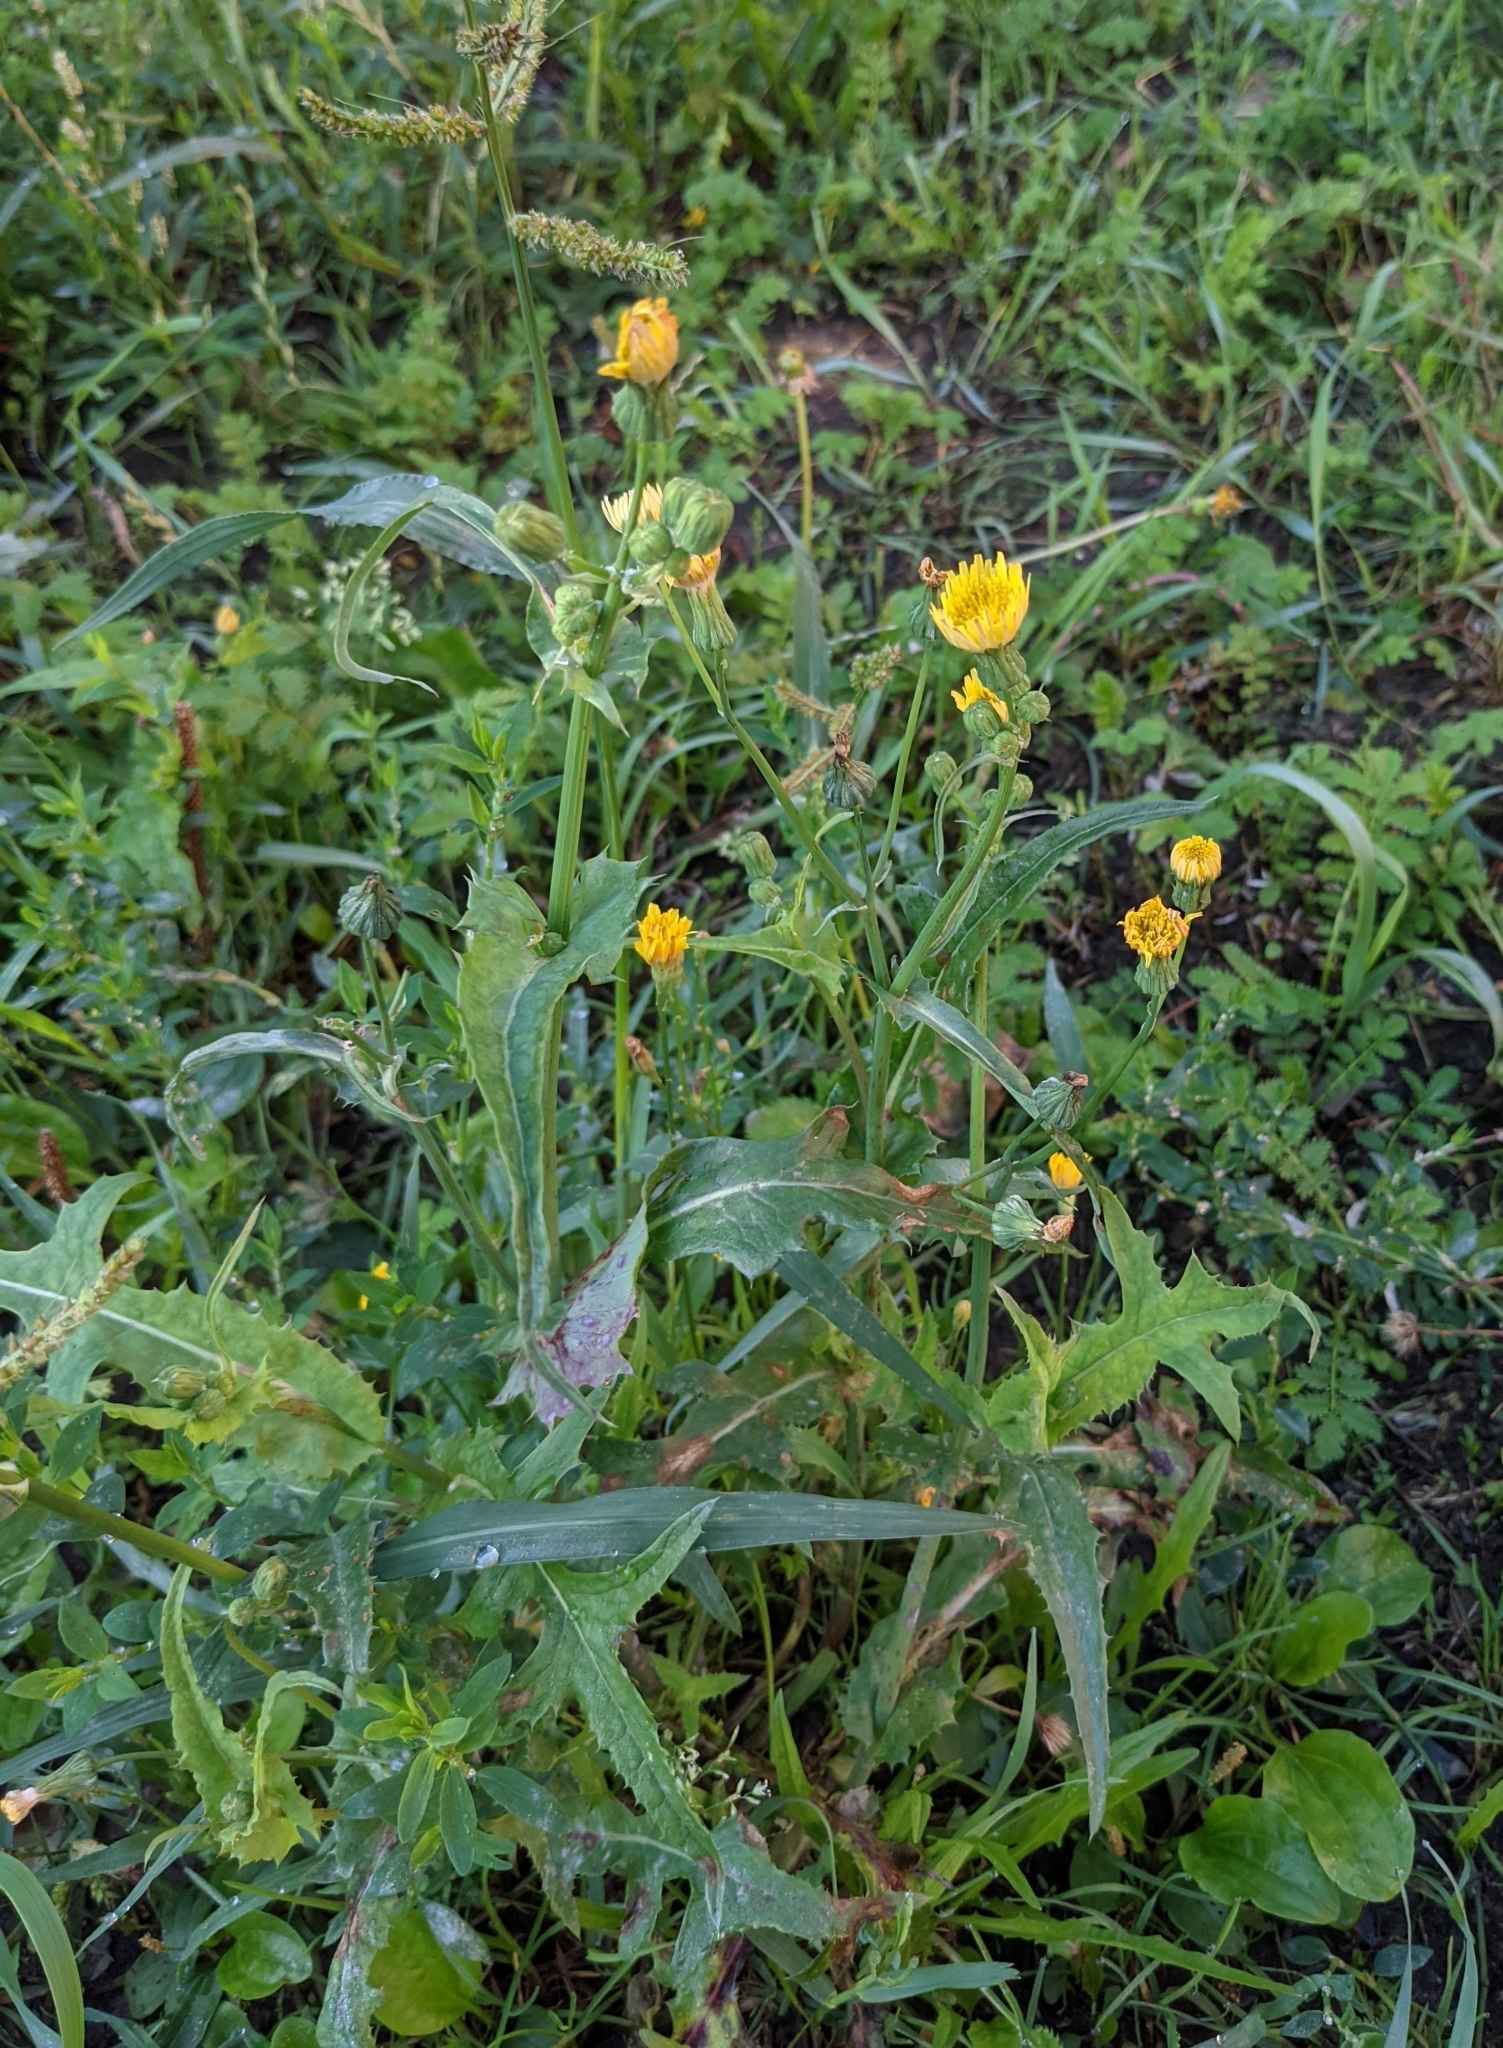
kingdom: Plantae
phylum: Tracheophyta
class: Magnoliopsida
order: Asterales
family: Asteraceae
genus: Sonchus
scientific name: Sonchus oleraceus
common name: Common sowthistle
